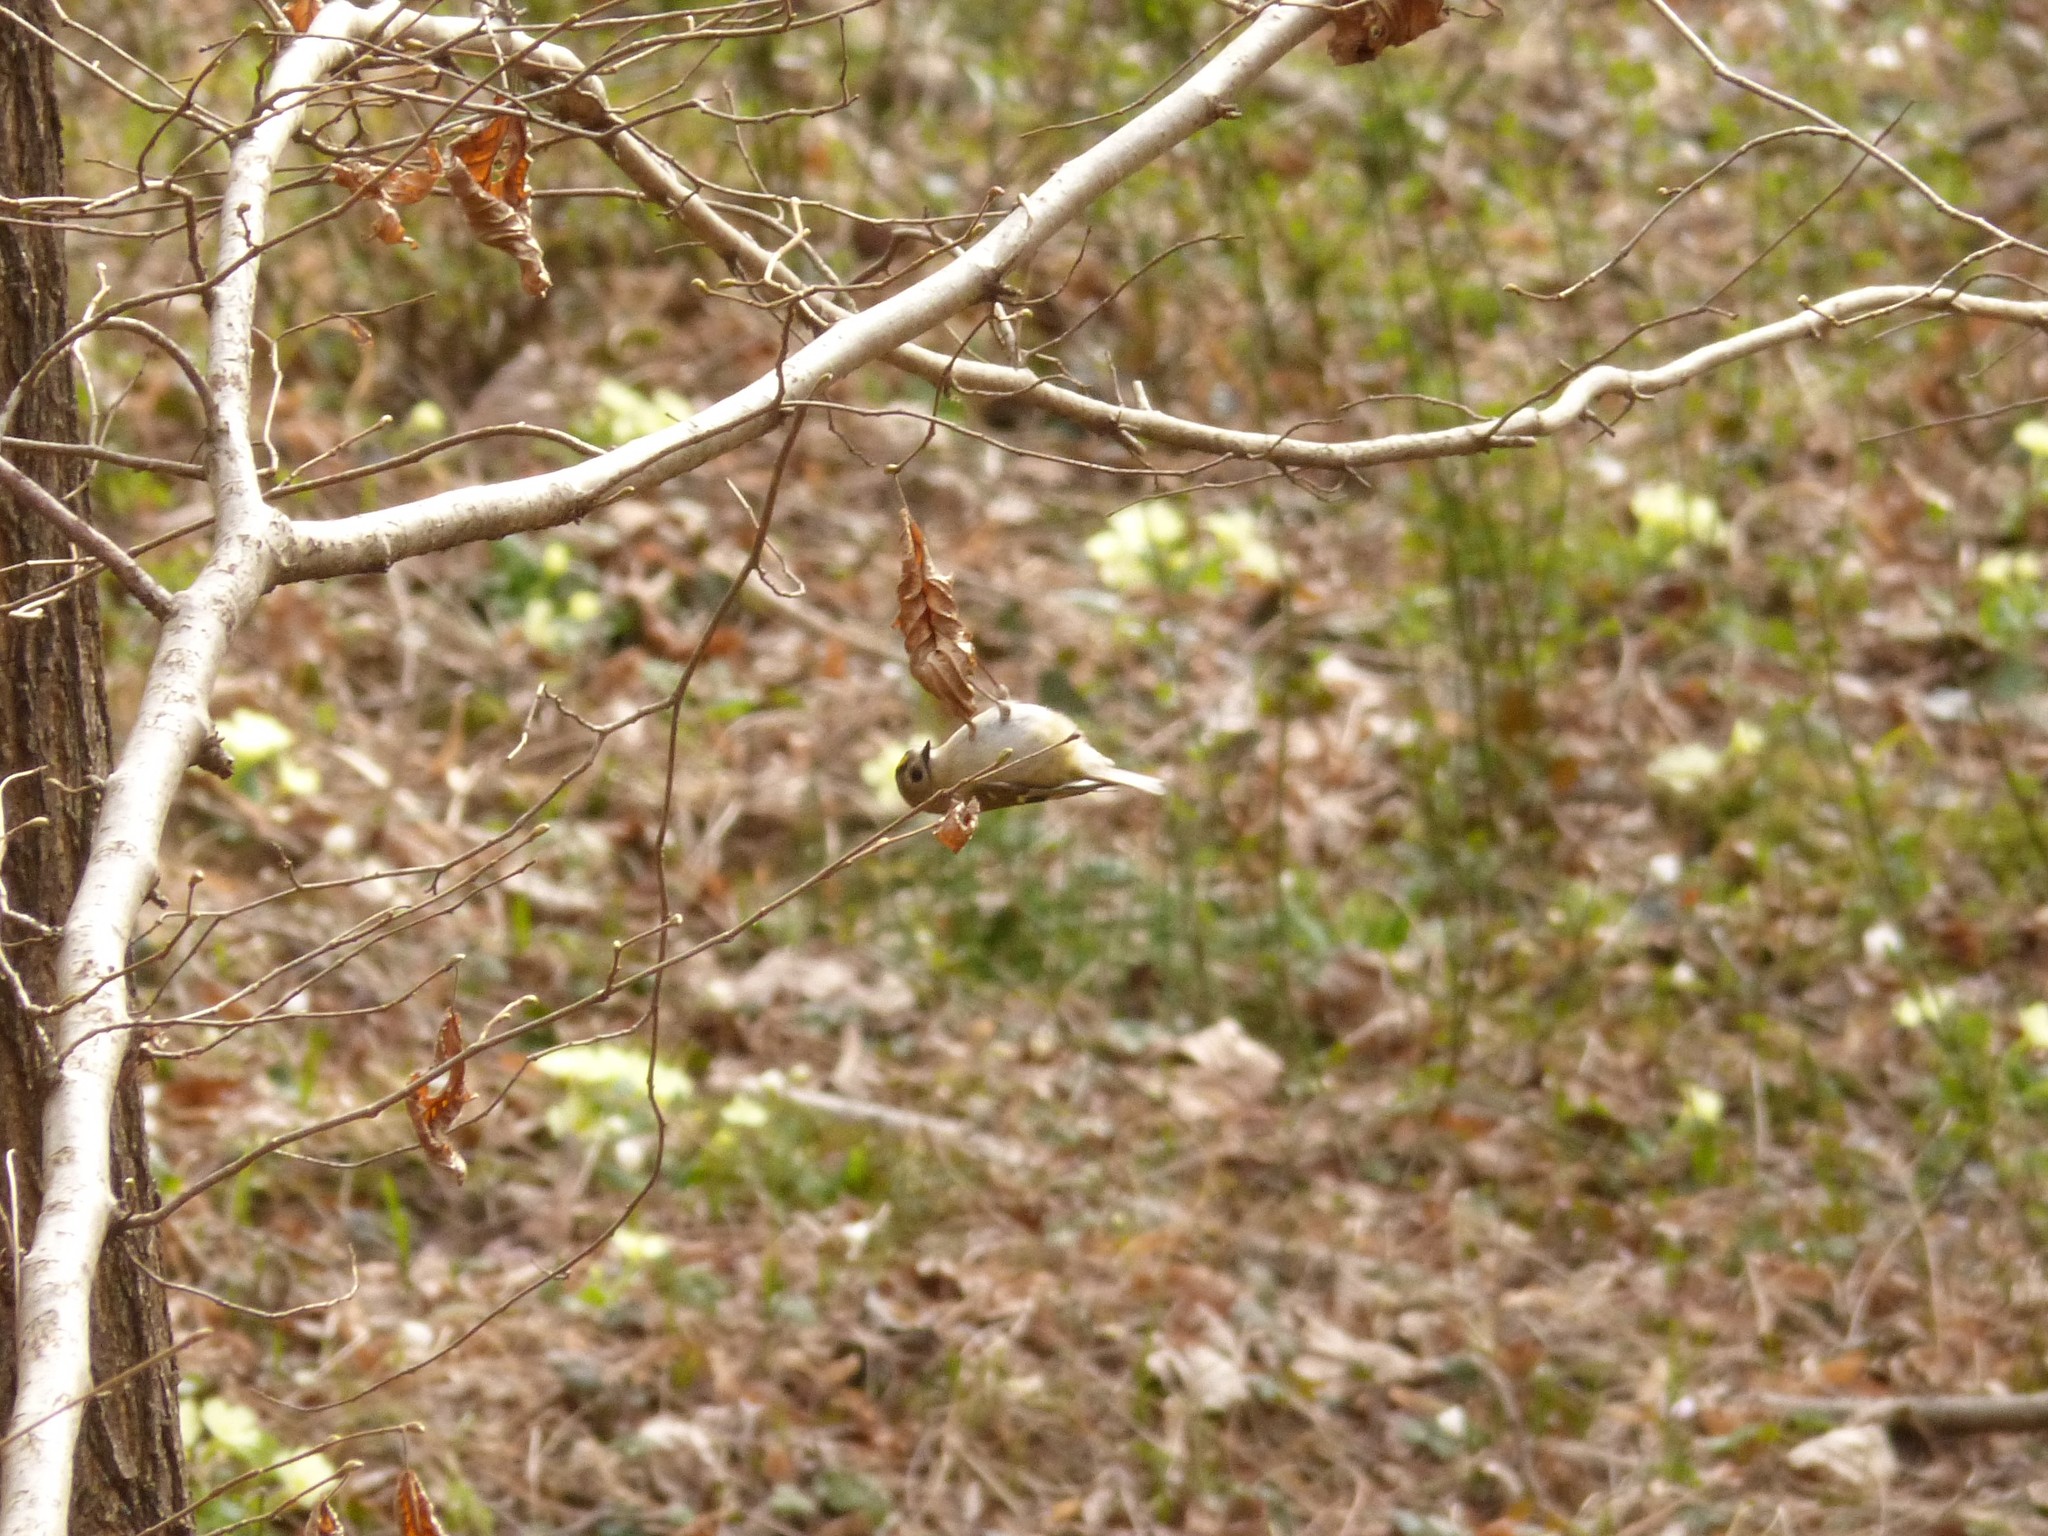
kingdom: Animalia
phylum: Chordata
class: Aves
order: Passeriformes
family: Regulidae
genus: Regulus
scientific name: Regulus regulus
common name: Goldcrest
